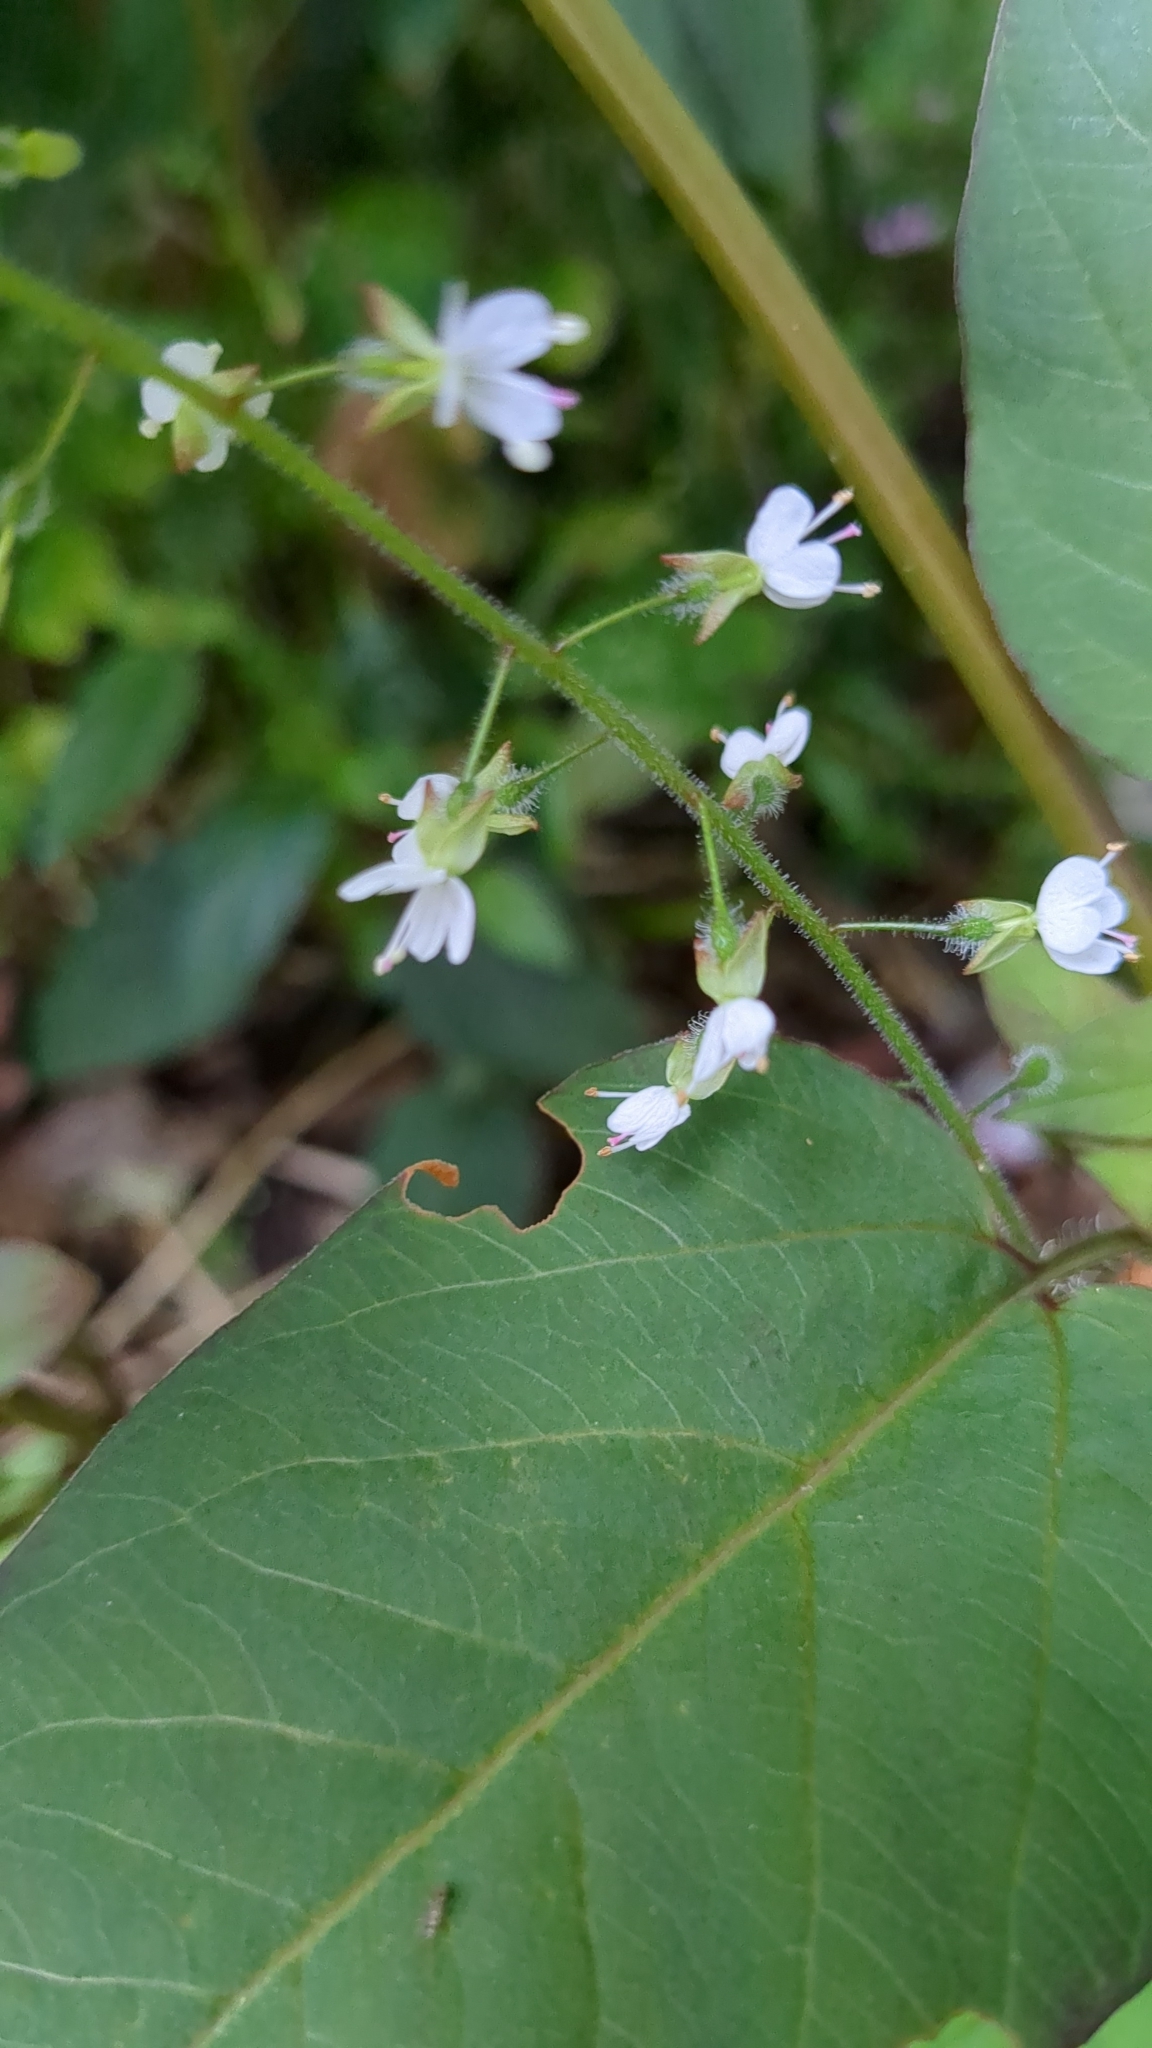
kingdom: Plantae
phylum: Tracheophyta
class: Magnoliopsida
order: Myrtales
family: Onagraceae
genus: Circaea
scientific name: Circaea lutetiana
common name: Enchanter's-nightshade
